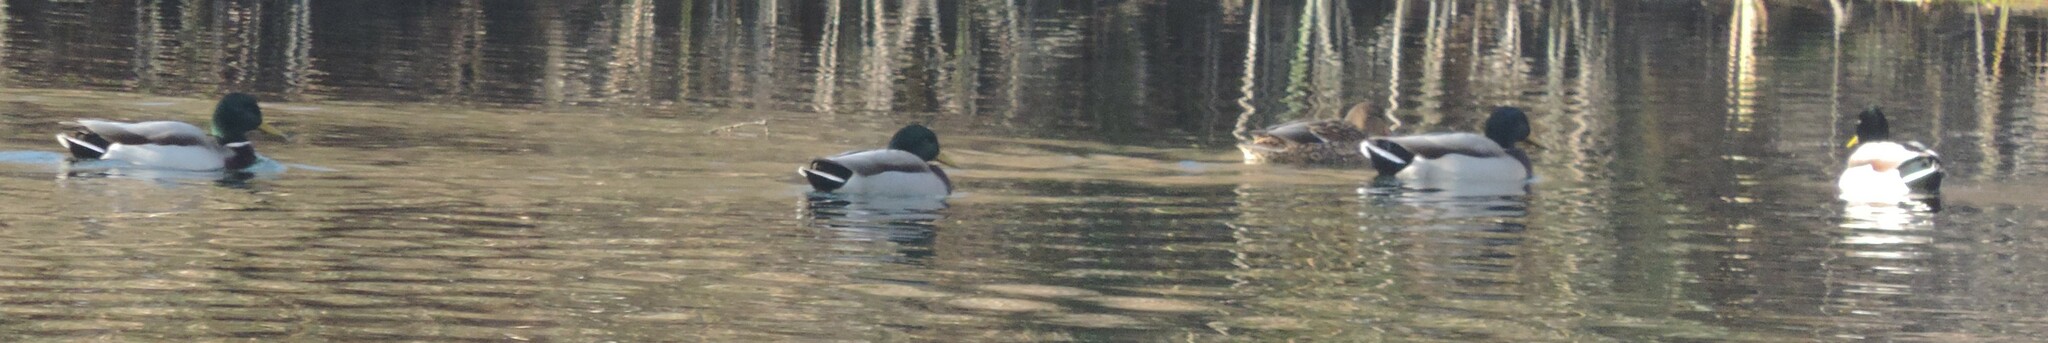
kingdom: Animalia
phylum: Chordata
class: Aves
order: Anseriformes
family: Anatidae
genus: Anas
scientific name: Anas platyrhynchos
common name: Mallard
